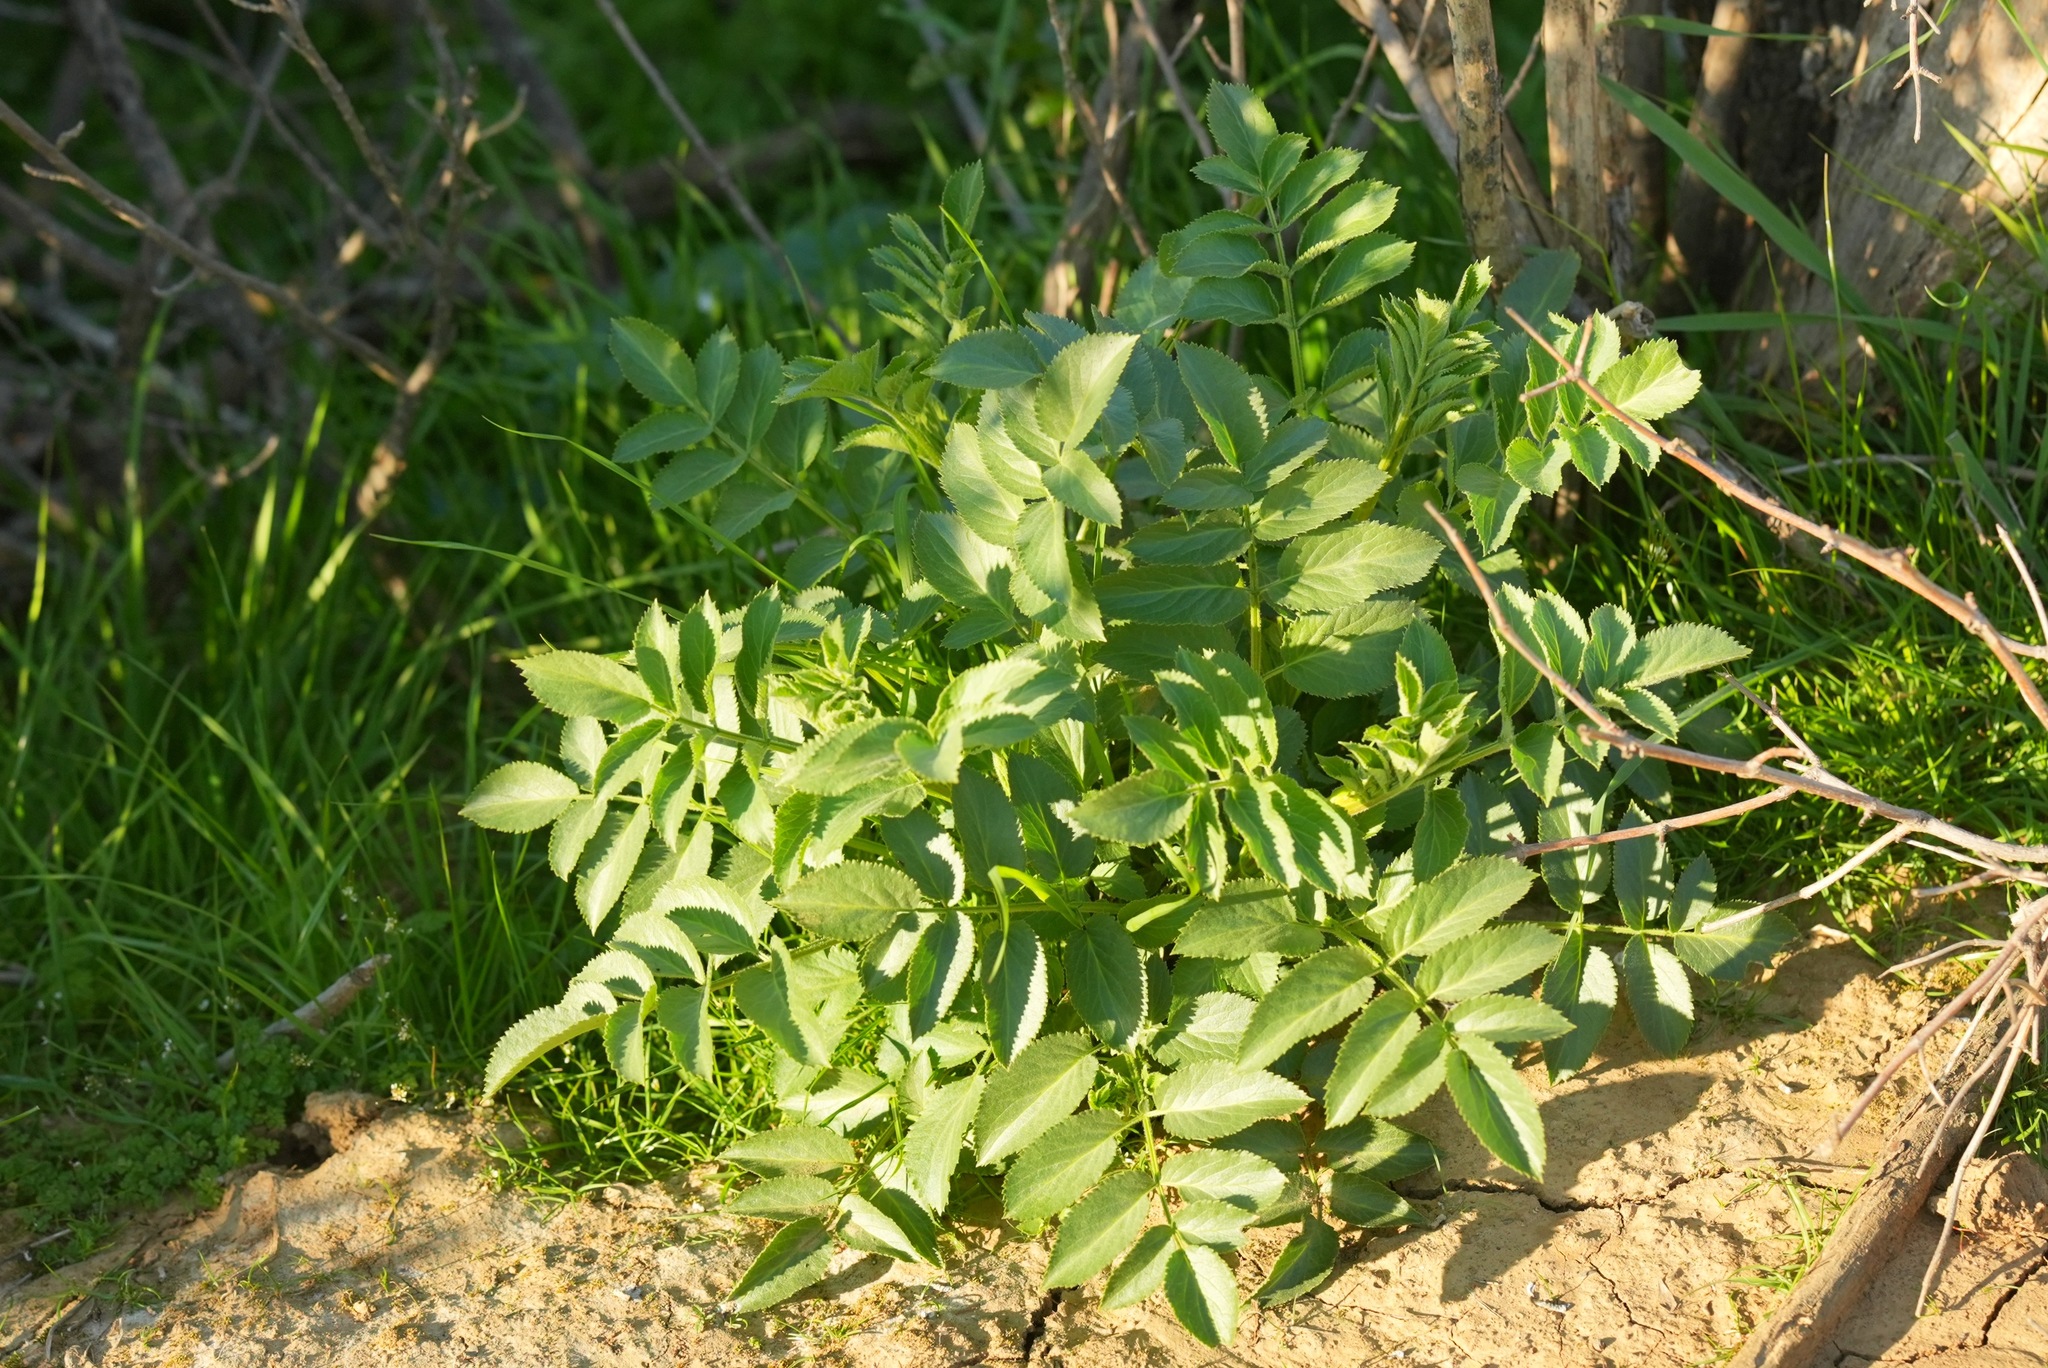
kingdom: Plantae
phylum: Tracheophyta
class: Magnoliopsida
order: Dipsacales
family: Viburnaceae
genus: Sambucus
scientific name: Sambucus cerulea
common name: Blue elder
